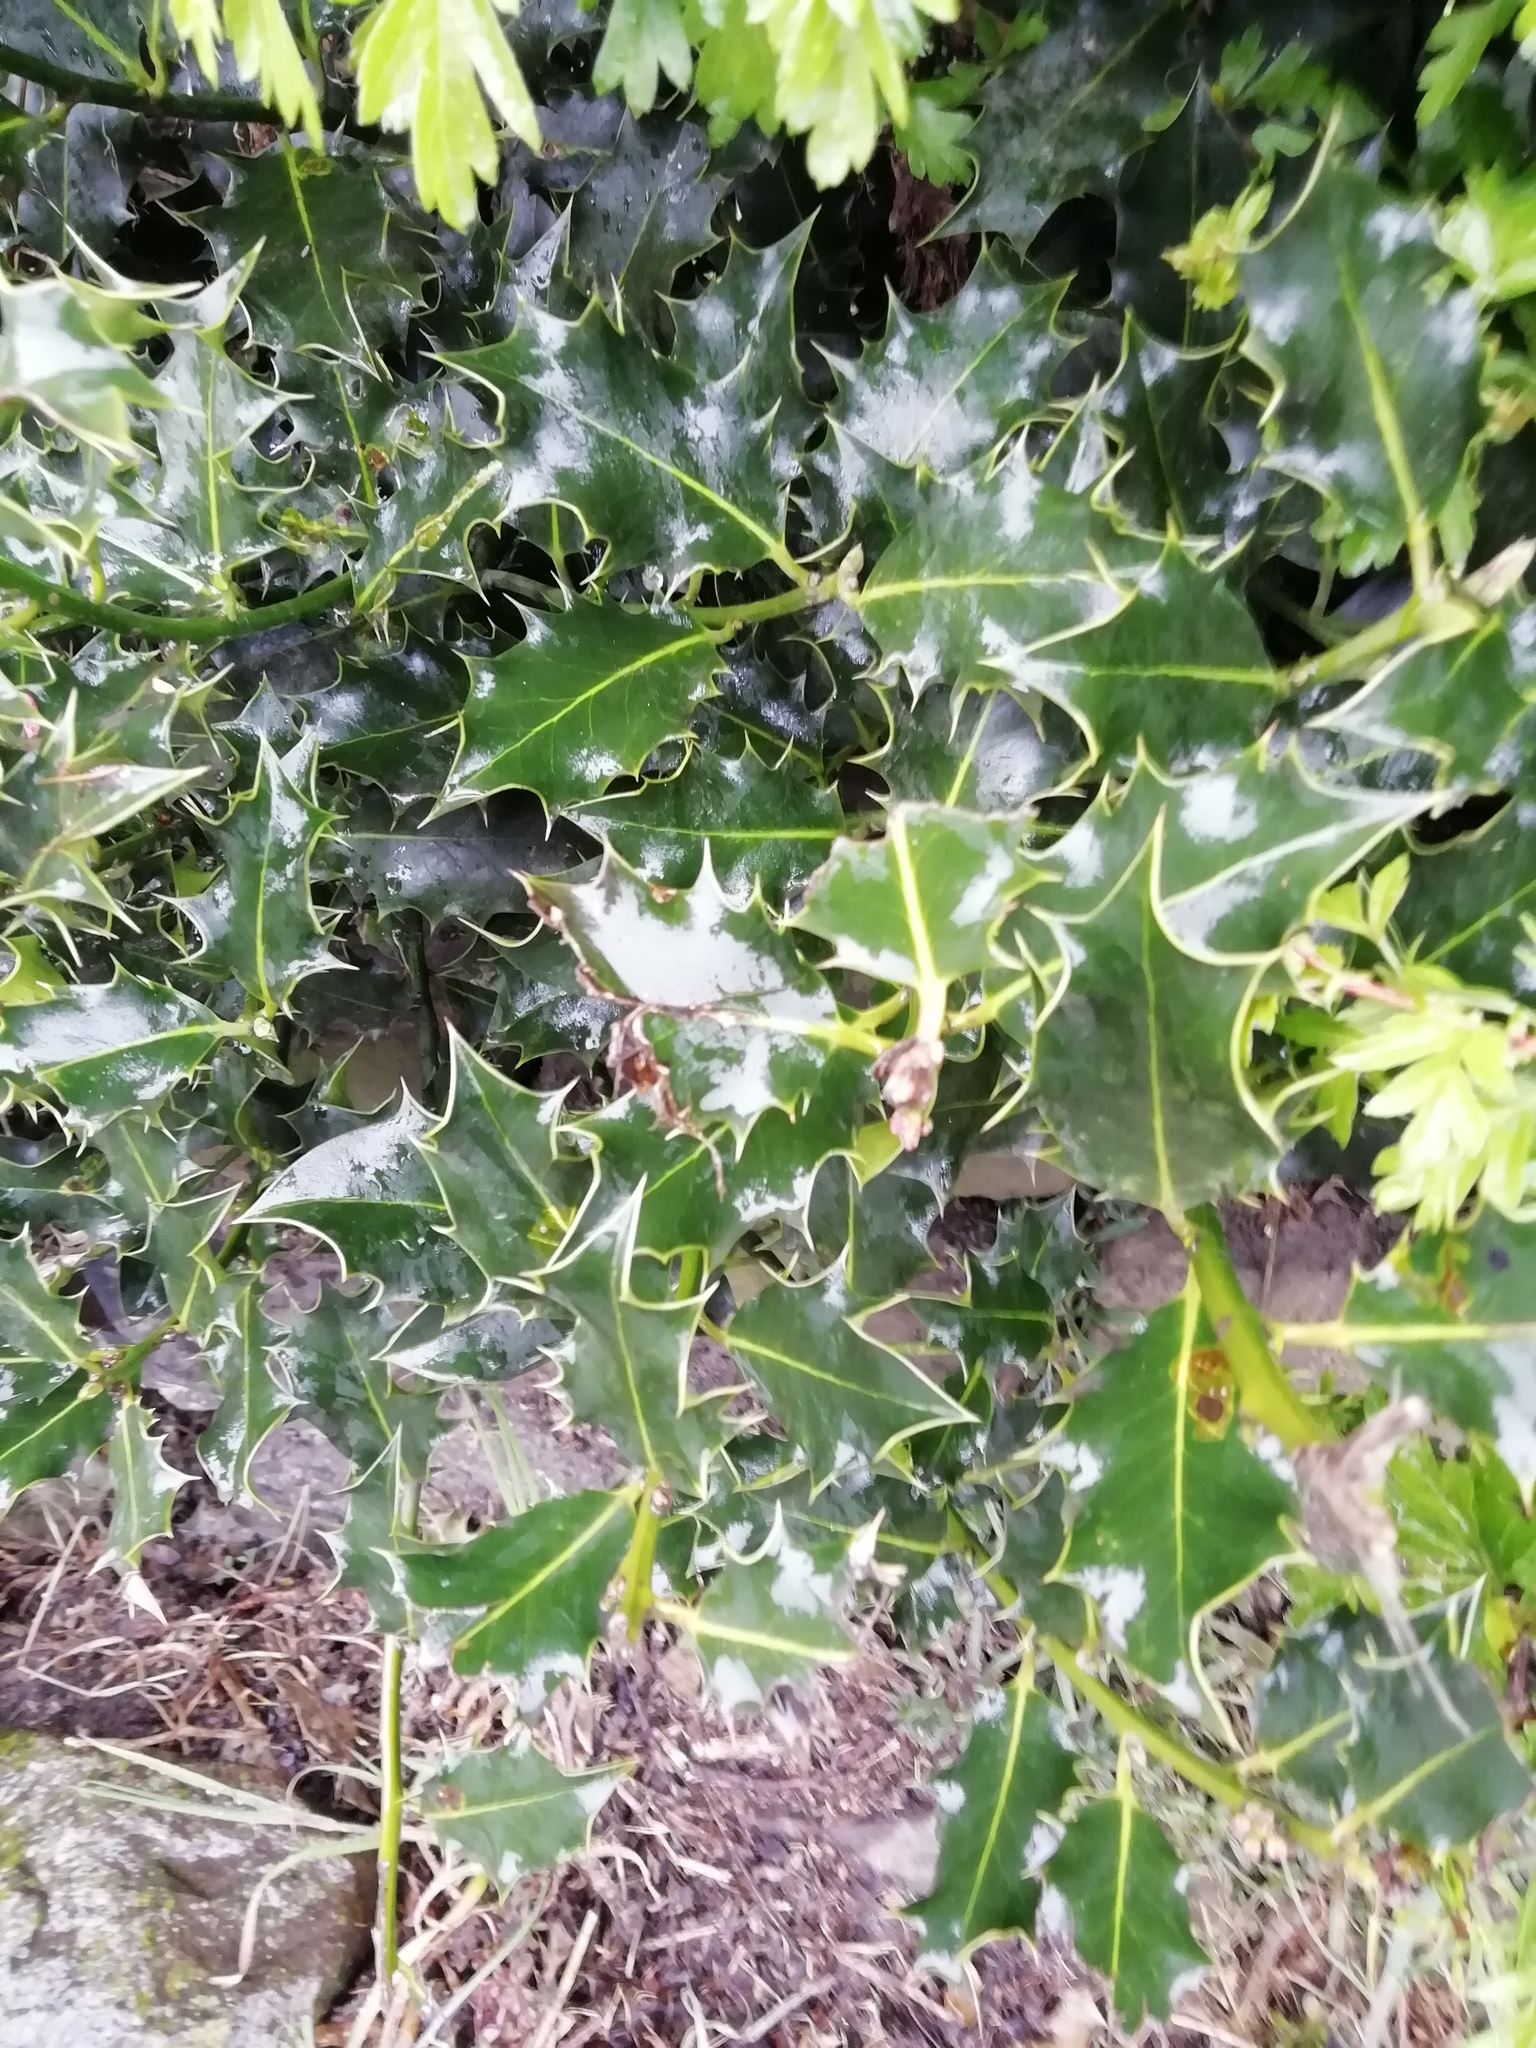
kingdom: Plantae
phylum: Tracheophyta
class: Magnoliopsida
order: Aquifoliales
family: Aquifoliaceae
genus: Ilex
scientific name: Ilex aquifolium
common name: English holly
